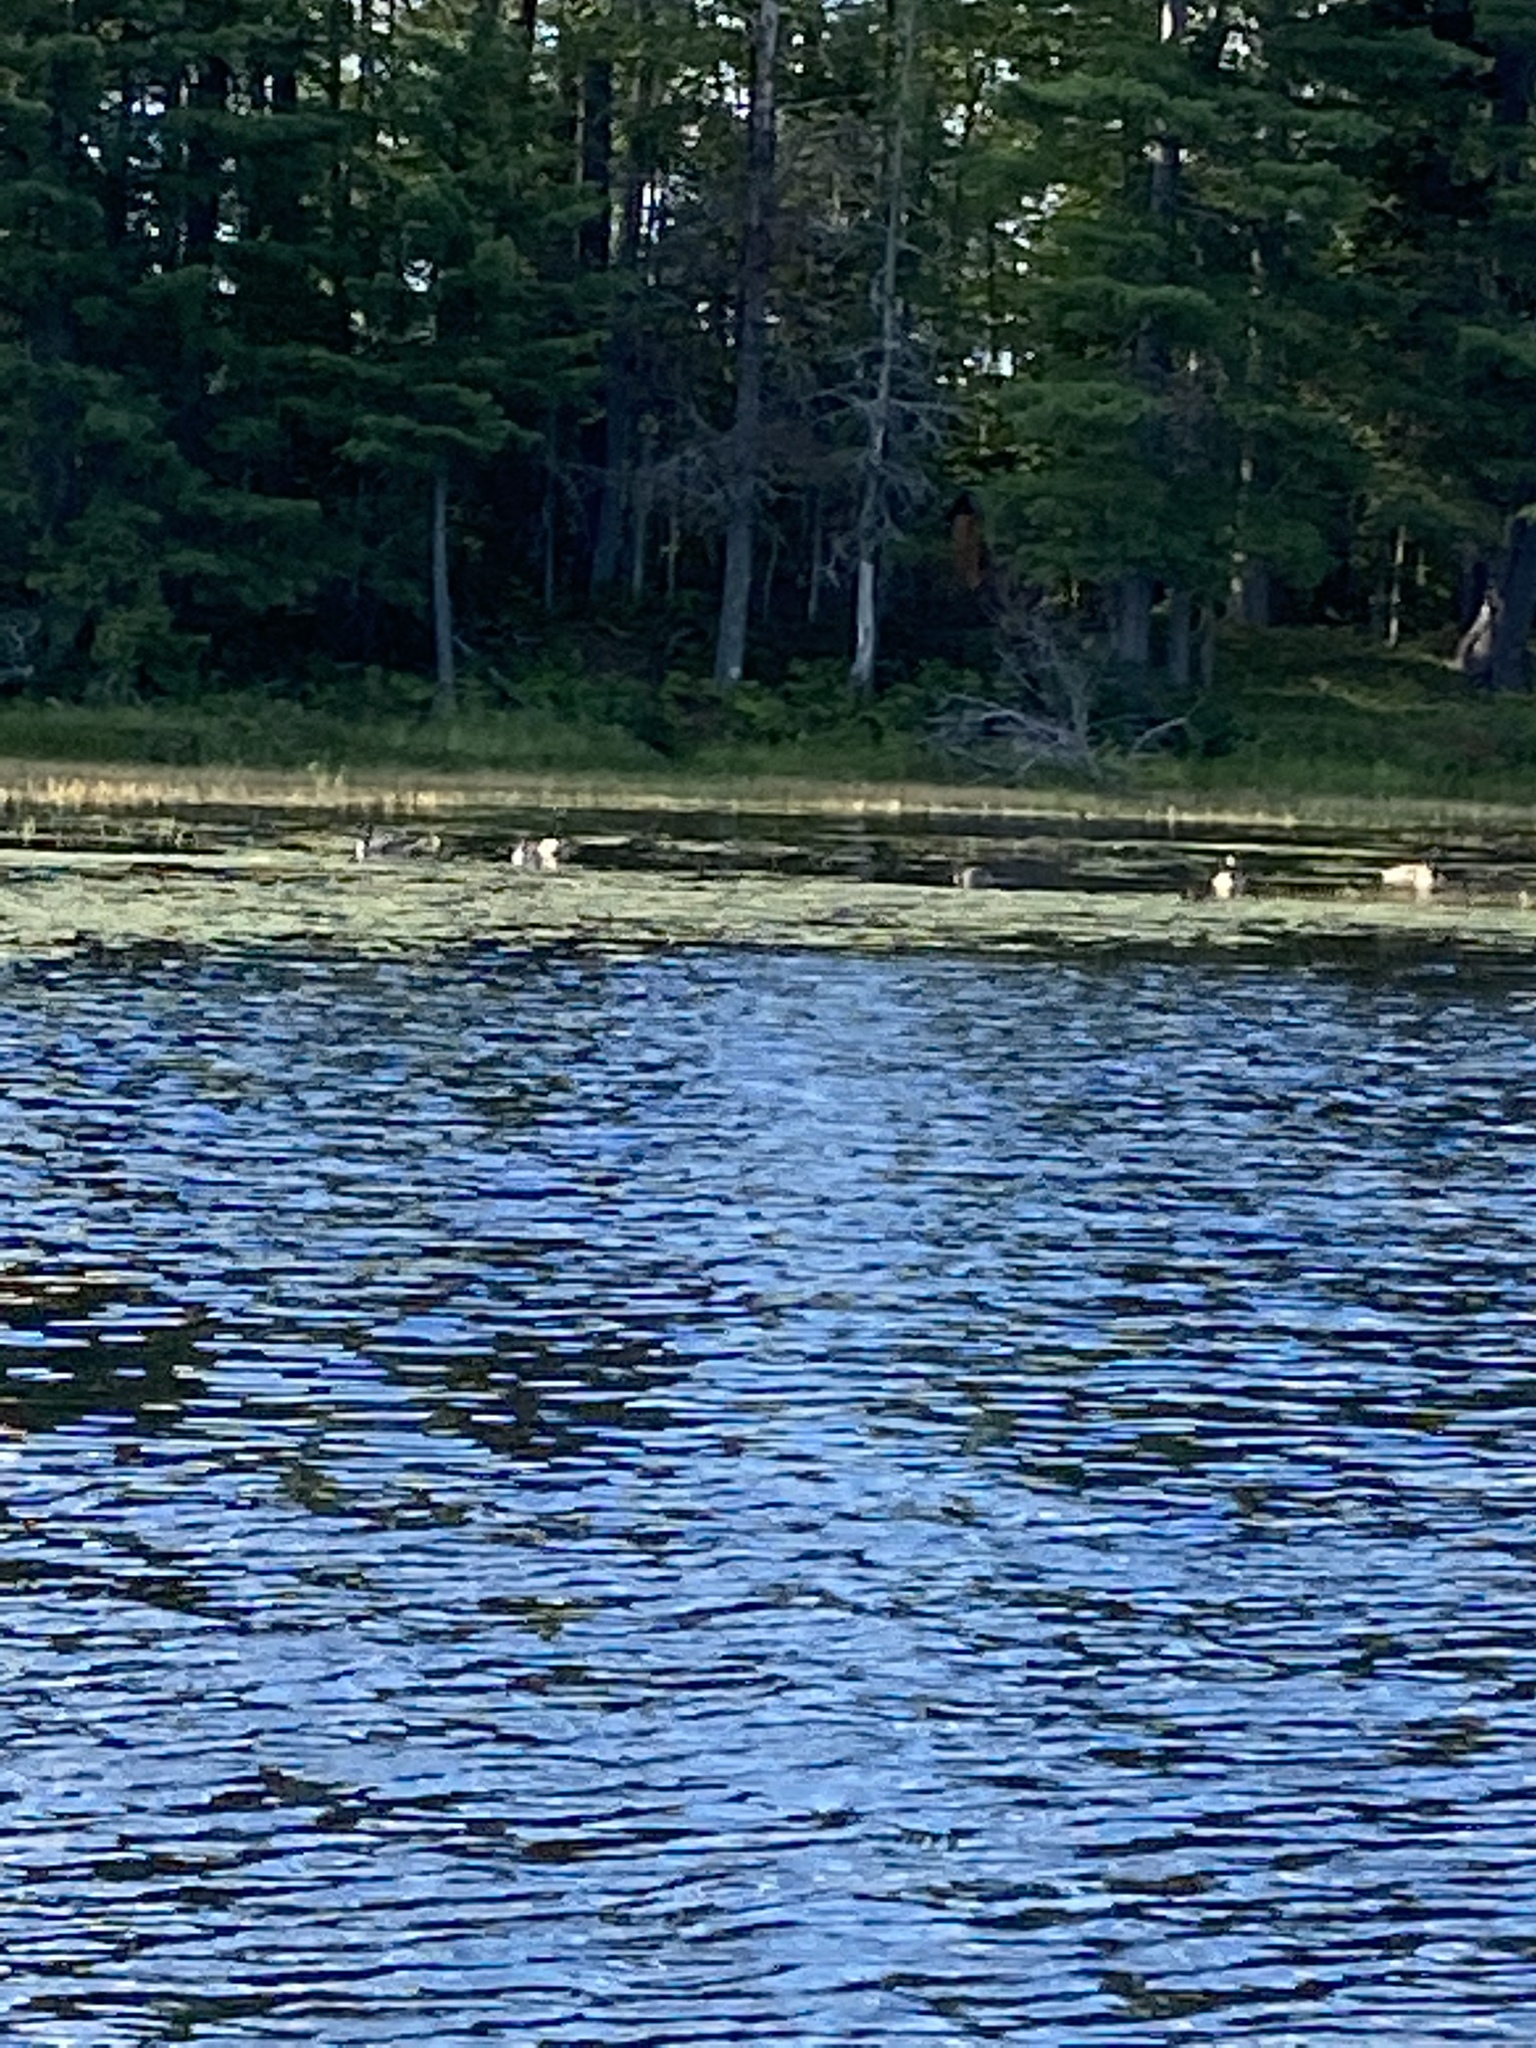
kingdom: Animalia
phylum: Chordata
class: Aves
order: Anseriformes
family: Anatidae
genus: Branta
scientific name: Branta canadensis
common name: Canada goose
